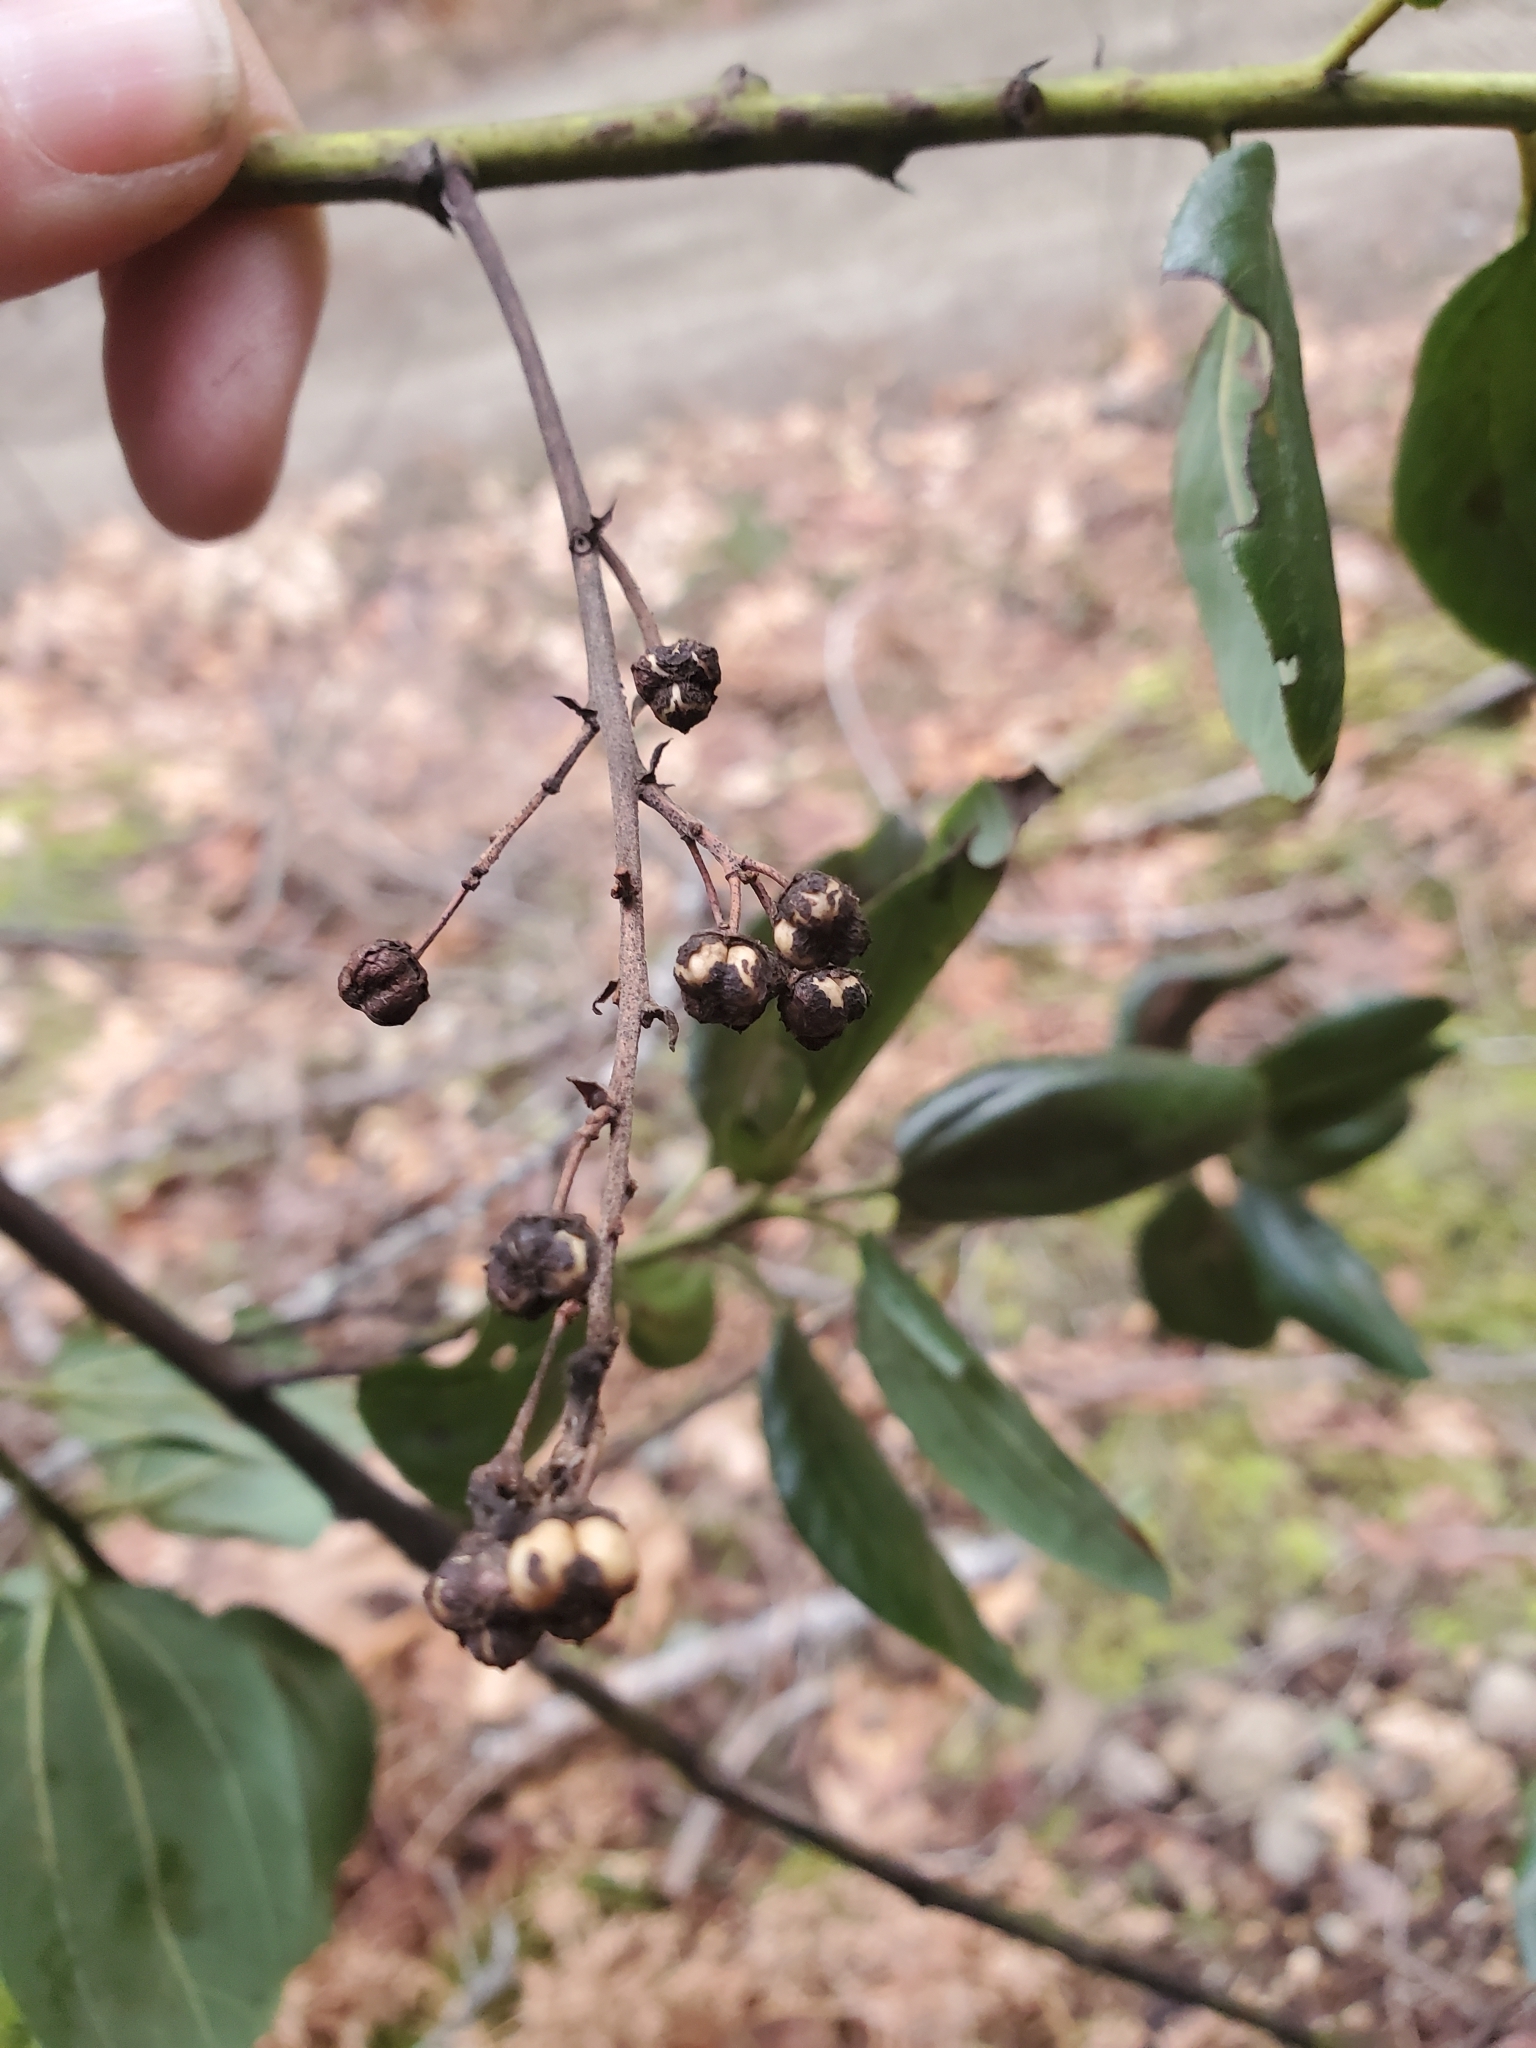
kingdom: Plantae
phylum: Tracheophyta
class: Magnoliopsida
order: Rosales
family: Rhamnaceae
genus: Ceanothus
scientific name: Ceanothus velutinus
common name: Snowbrush
